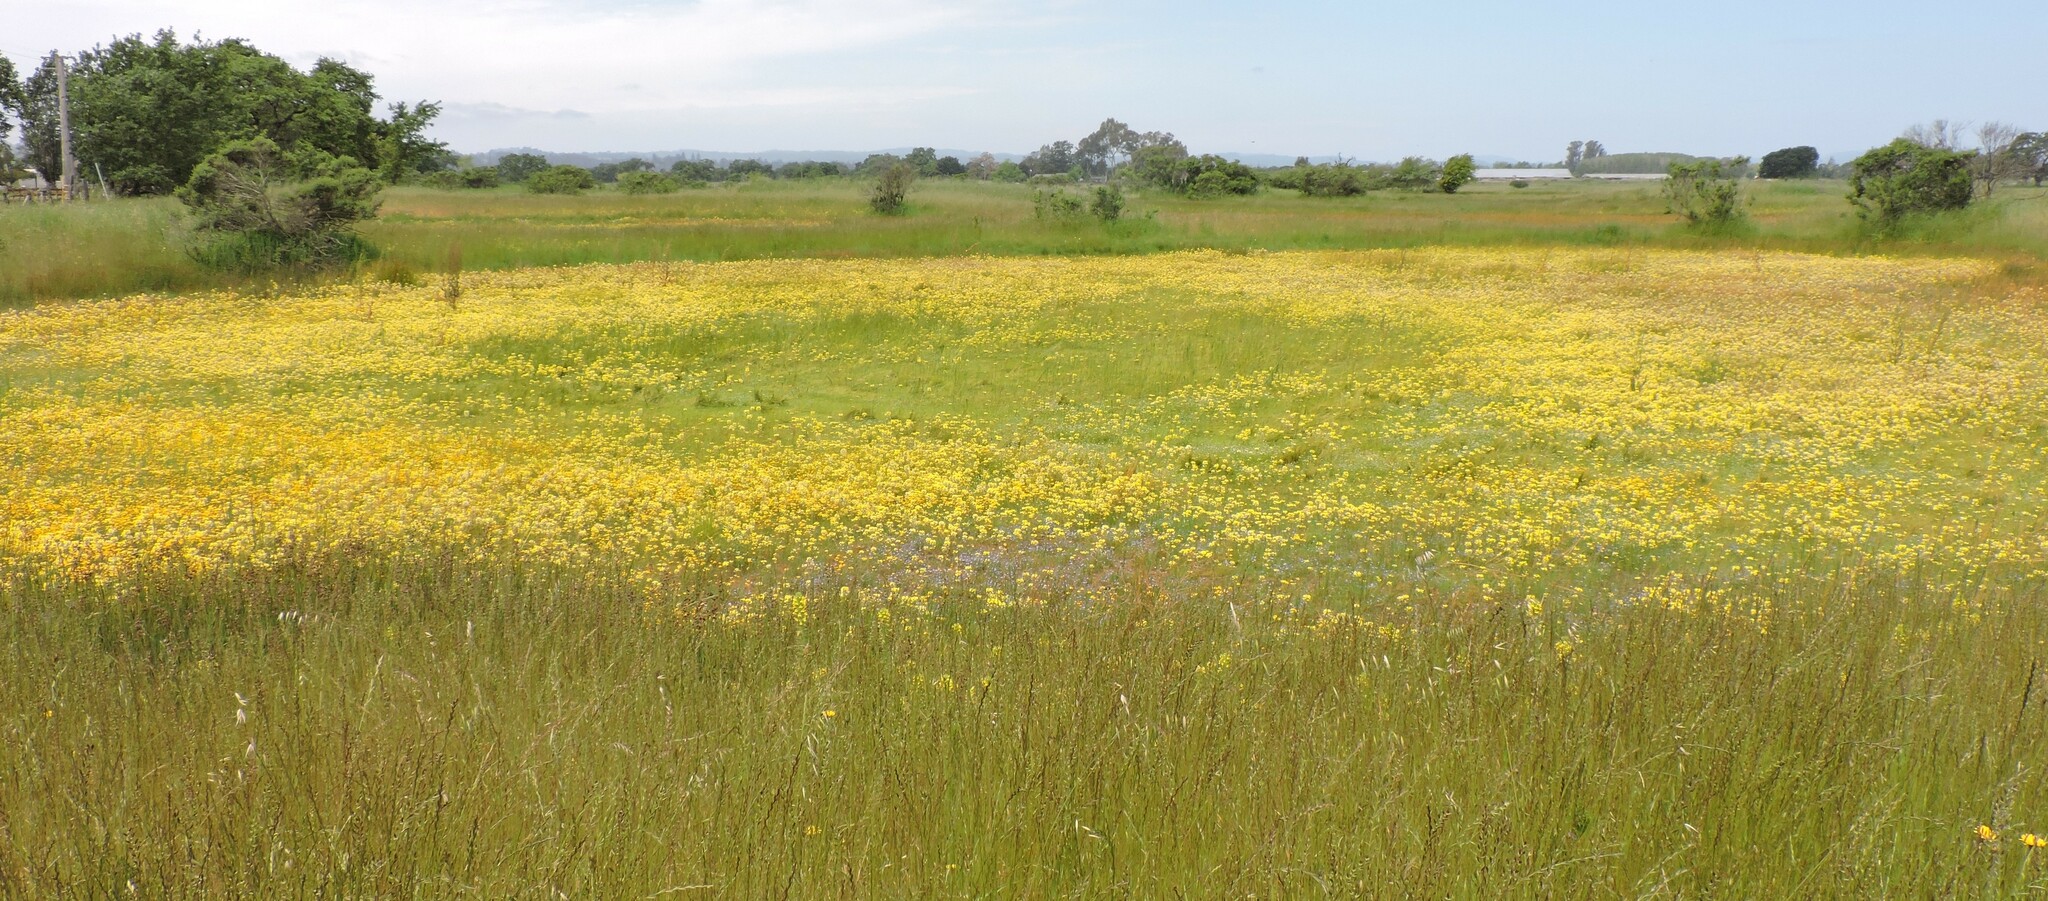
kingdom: Plantae
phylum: Tracheophyta
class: Magnoliopsida
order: Lamiales
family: Orobanchaceae
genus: Castilleja
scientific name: Castilleja campestris
